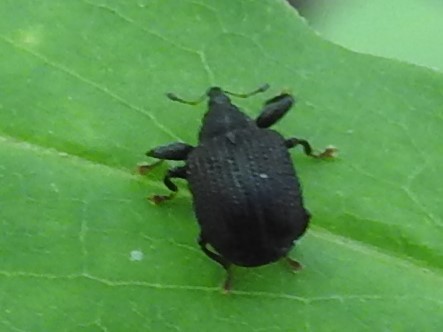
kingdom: Animalia
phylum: Arthropoda
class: Insecta
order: Coleoptera
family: Curculionidae
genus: Odontopus
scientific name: Odontopus calceatus
